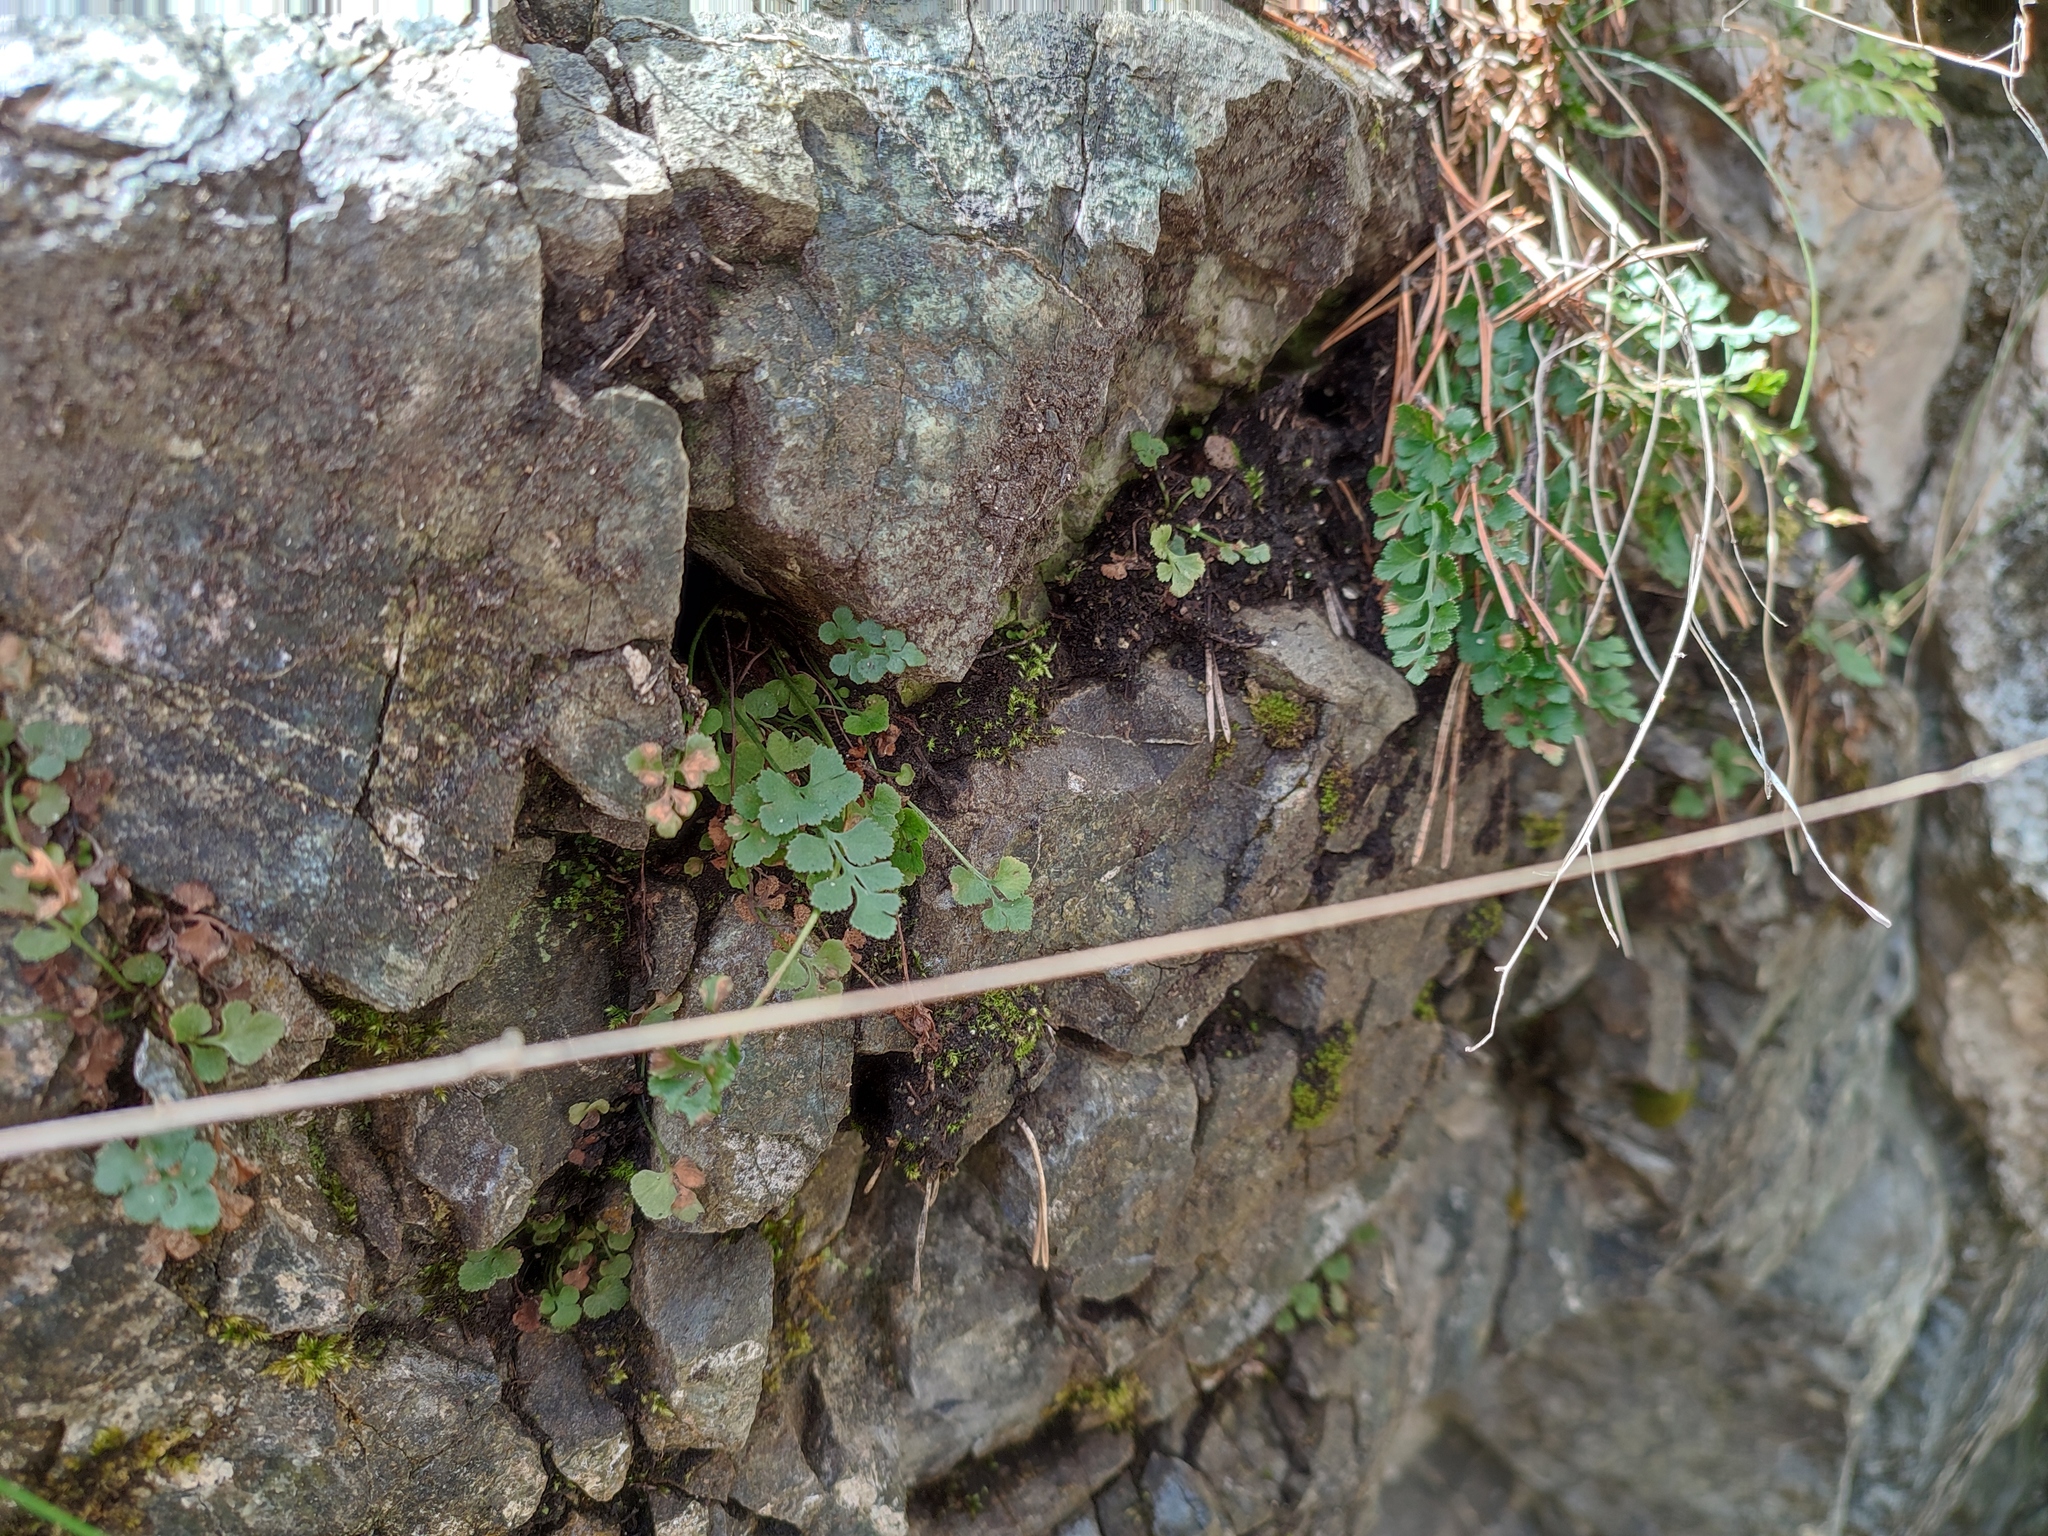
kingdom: Plantae
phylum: Tracheophyta
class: Polypodiopsida
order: Polypodiales
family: Aspleniaceae
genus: Asplenium
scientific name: Asplenium ruta-muraria
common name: Wall-rue
